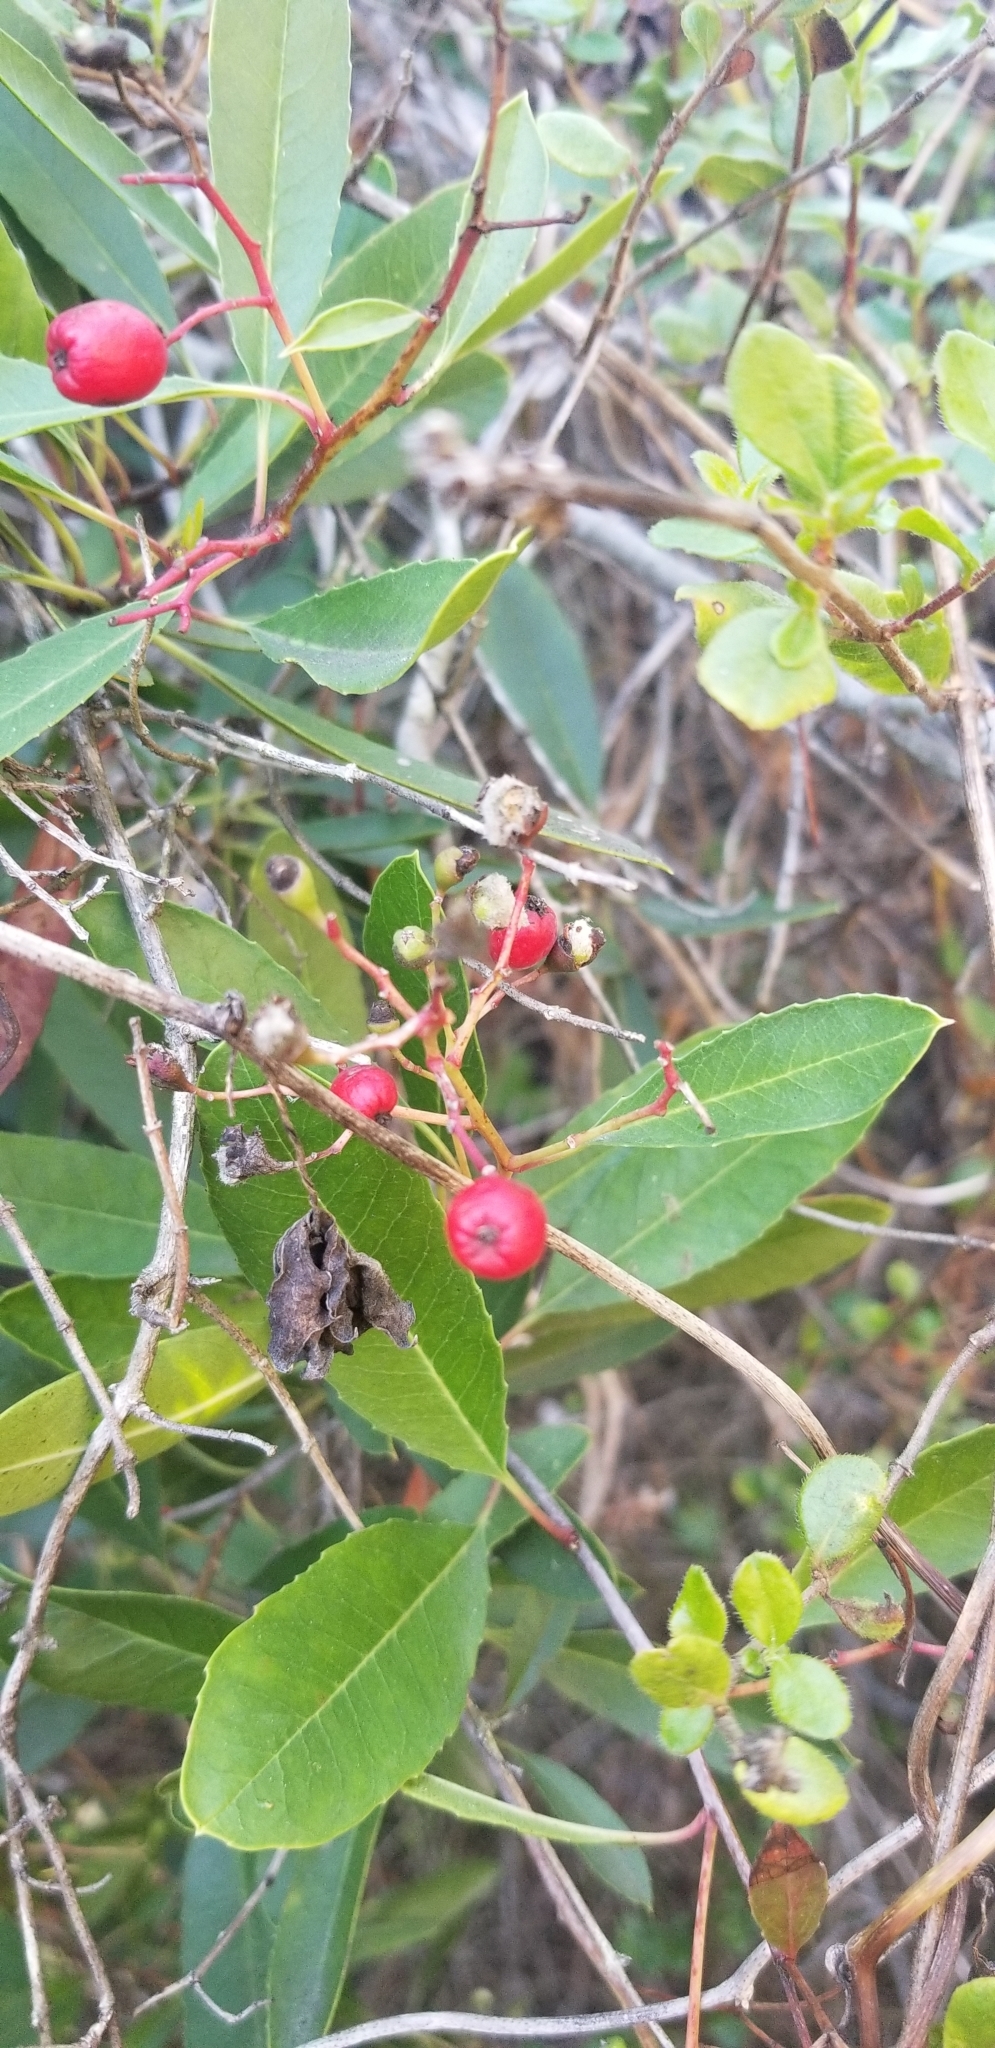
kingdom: Plantae
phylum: Tracheophyta
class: Magnoliopsida
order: Rosales
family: Rosaceae
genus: Heteromeles
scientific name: Heteromeles arbutifolia
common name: California-holly
